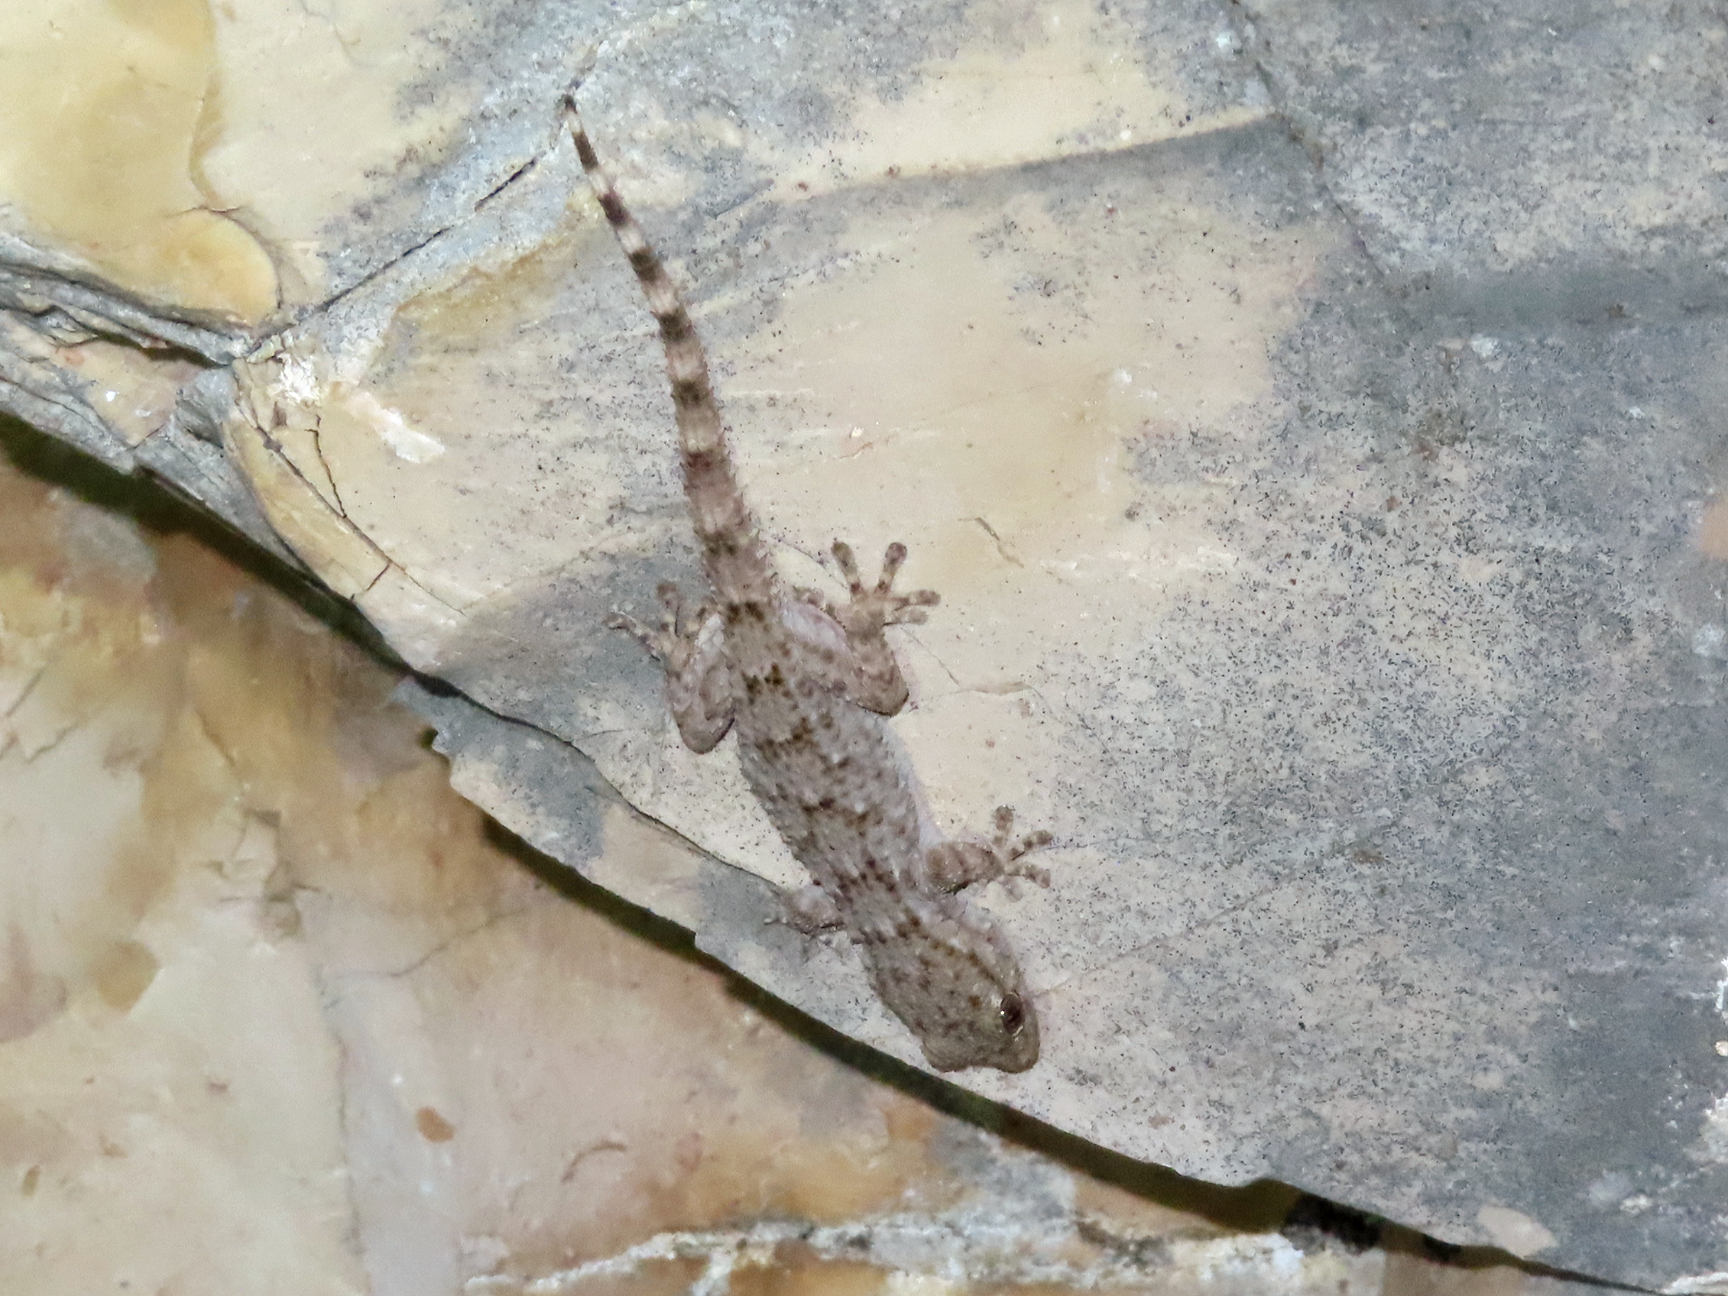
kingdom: Animalia
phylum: Chordata
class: Squamata
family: Phyllodactylidae
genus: Tarentola
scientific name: Tarentola mauritanica
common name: Moorish gecko
